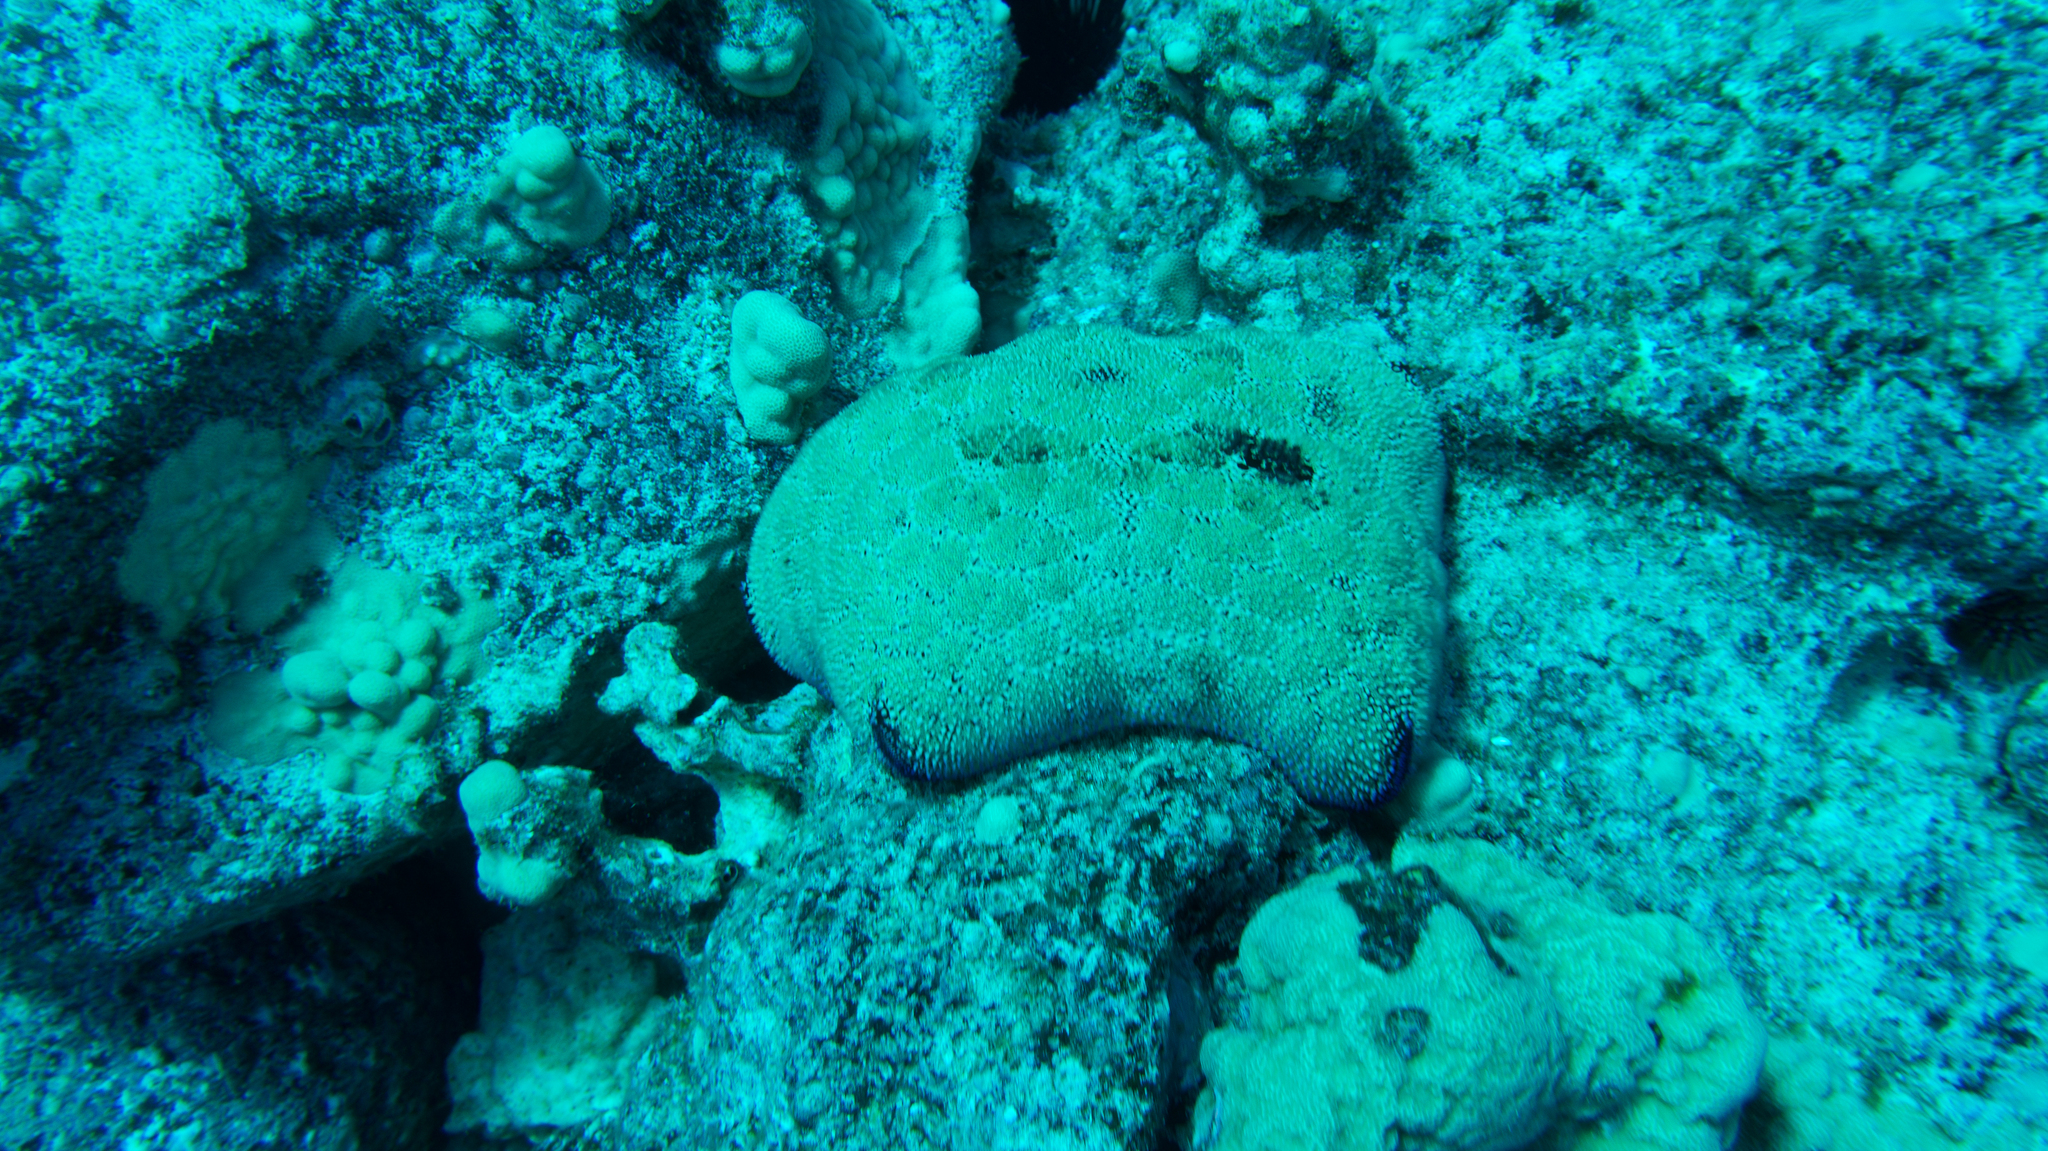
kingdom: Animalia
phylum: Echinodermata
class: Asteroidea
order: Valvatida
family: Oreasteridae
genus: Culcita
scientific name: Culcita novaeguineae
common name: Cushion star
